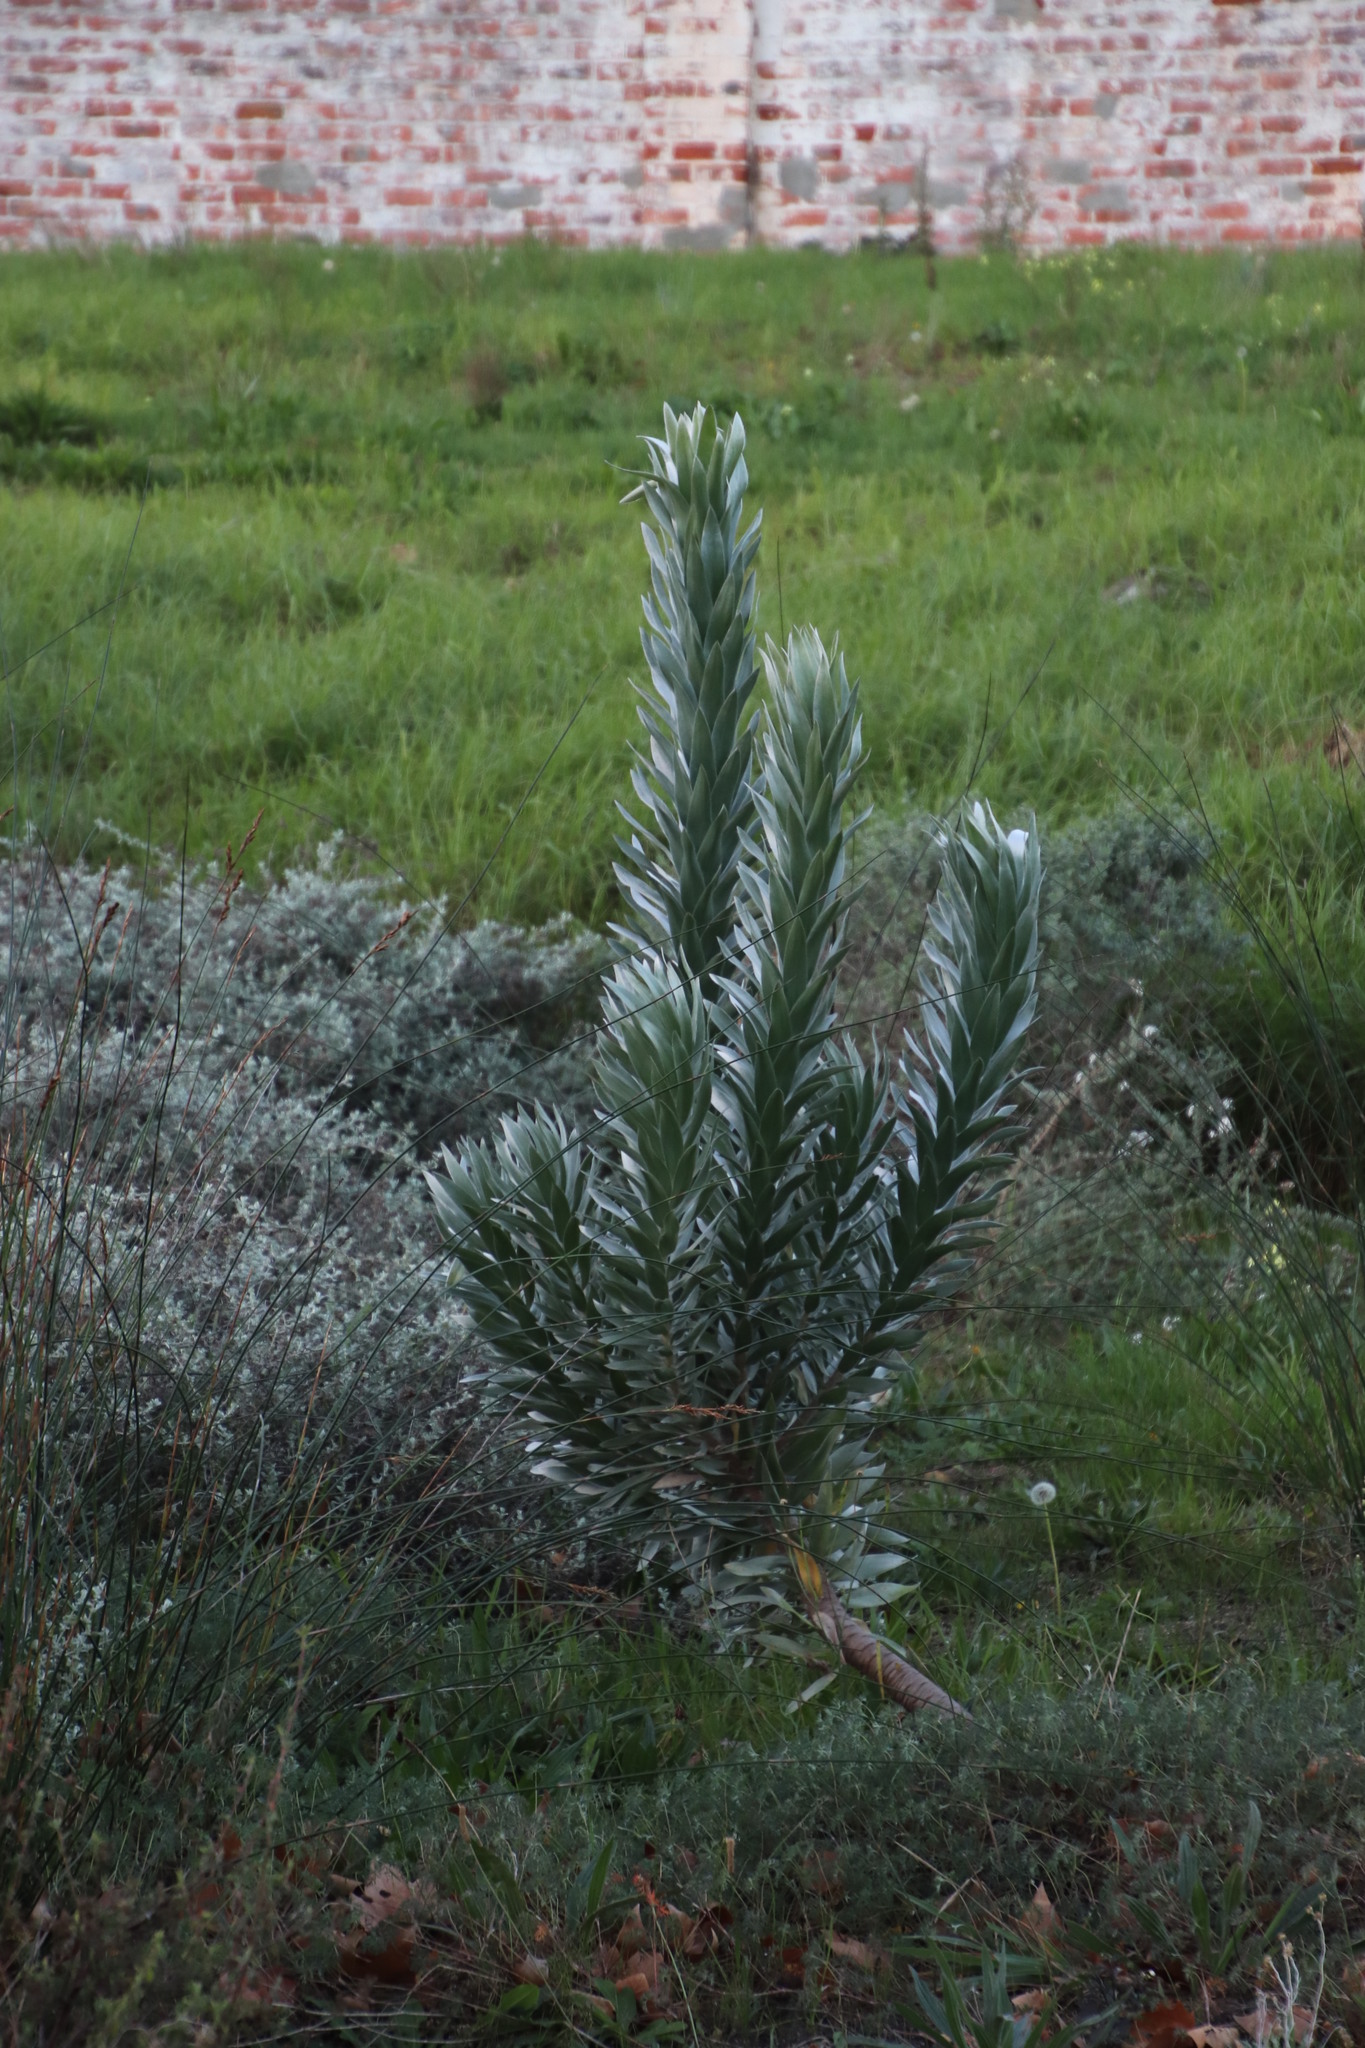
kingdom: Plantae
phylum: Tracheophyta
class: Magnoliopsida
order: Proteales
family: Proteaceae
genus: Leucadendron
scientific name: Leucadendron argenteum
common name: Cape silver tree
